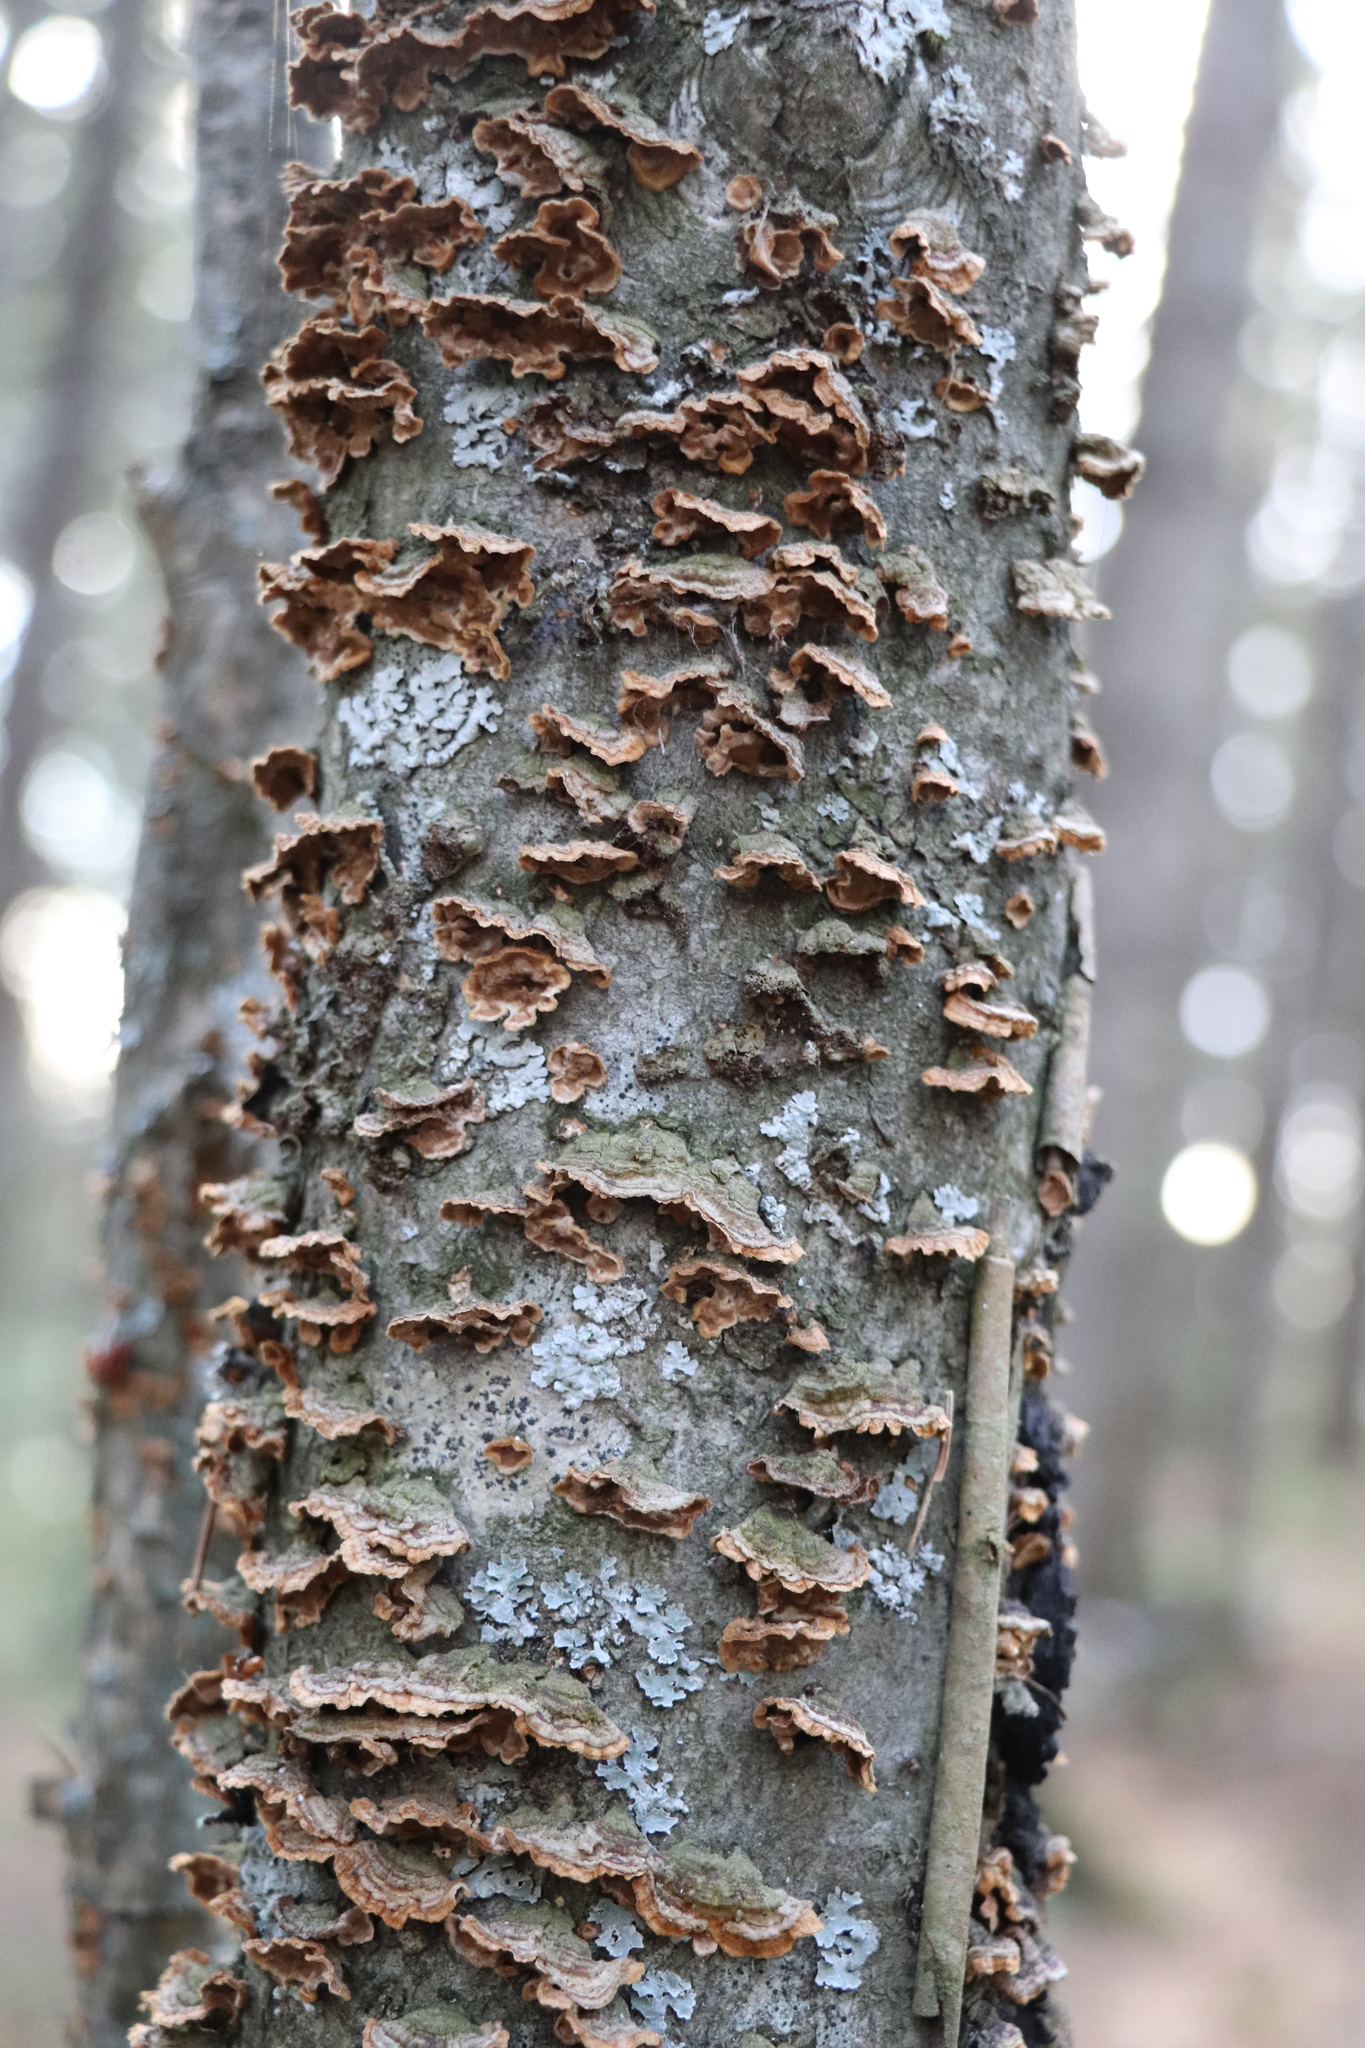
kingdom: Fungi
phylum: Basidiomycota
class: Agaricomycetes
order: Hymenochaetales
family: Hymenochaetaceae
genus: Hydnoporia
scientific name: Hydnoporia tabacina
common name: Willow glue
